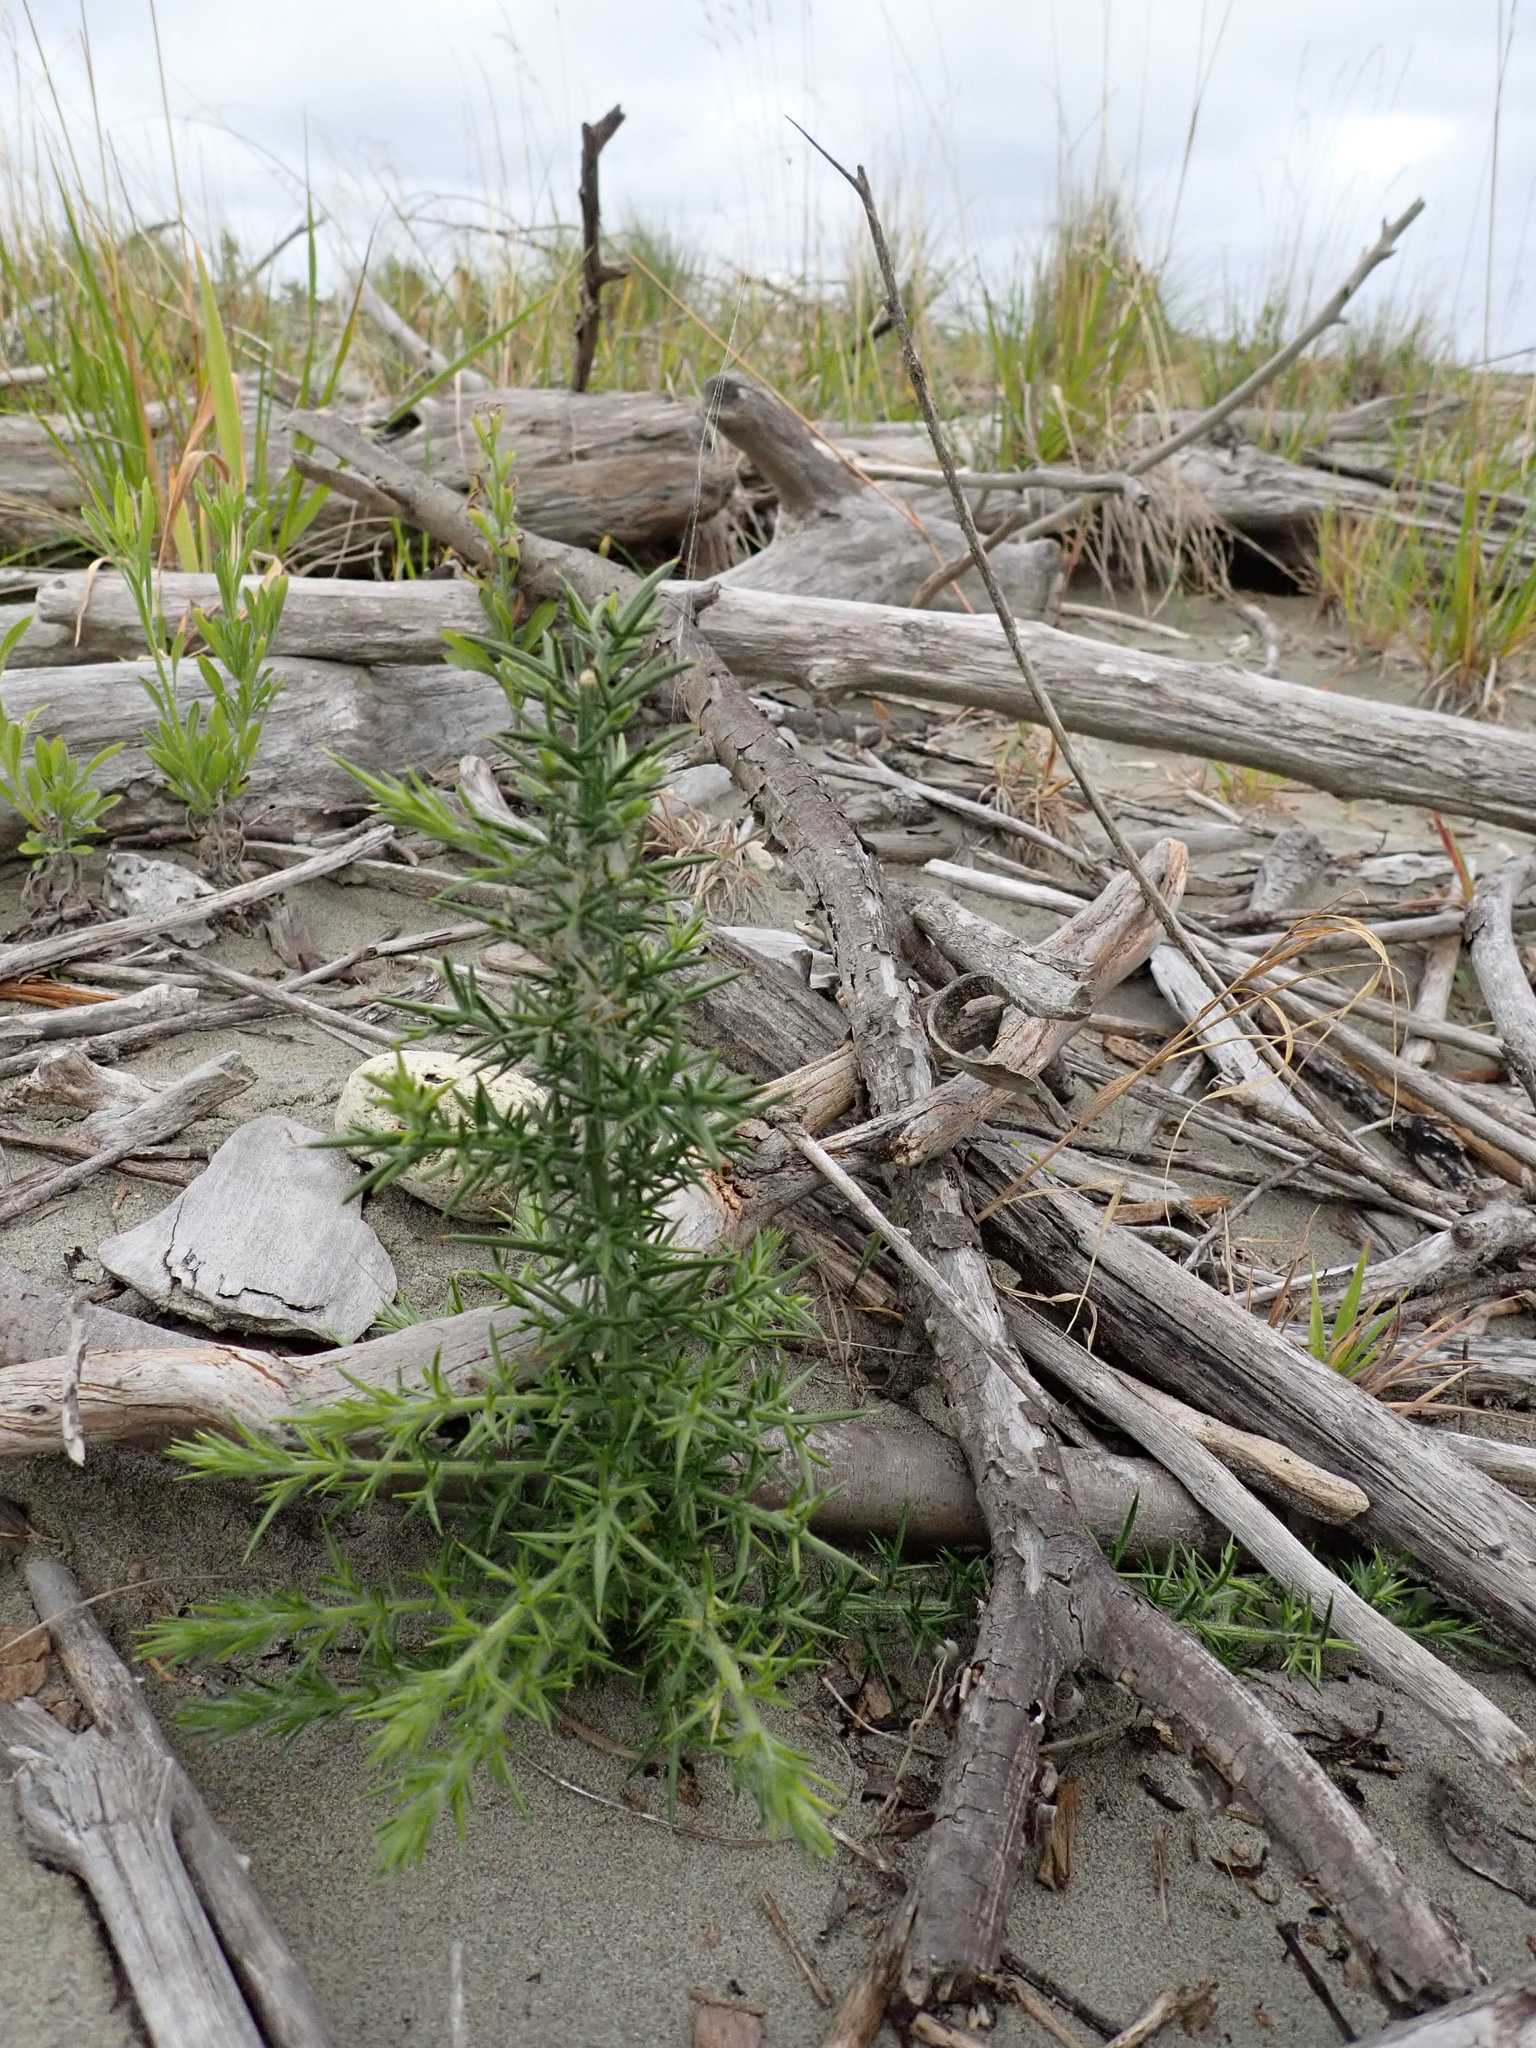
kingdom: Plantae
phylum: Tracheophyta
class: Magnoliopsida
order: Fabales
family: Fabaceae
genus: Ulex
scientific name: Ulex europaeus
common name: Common gorse
